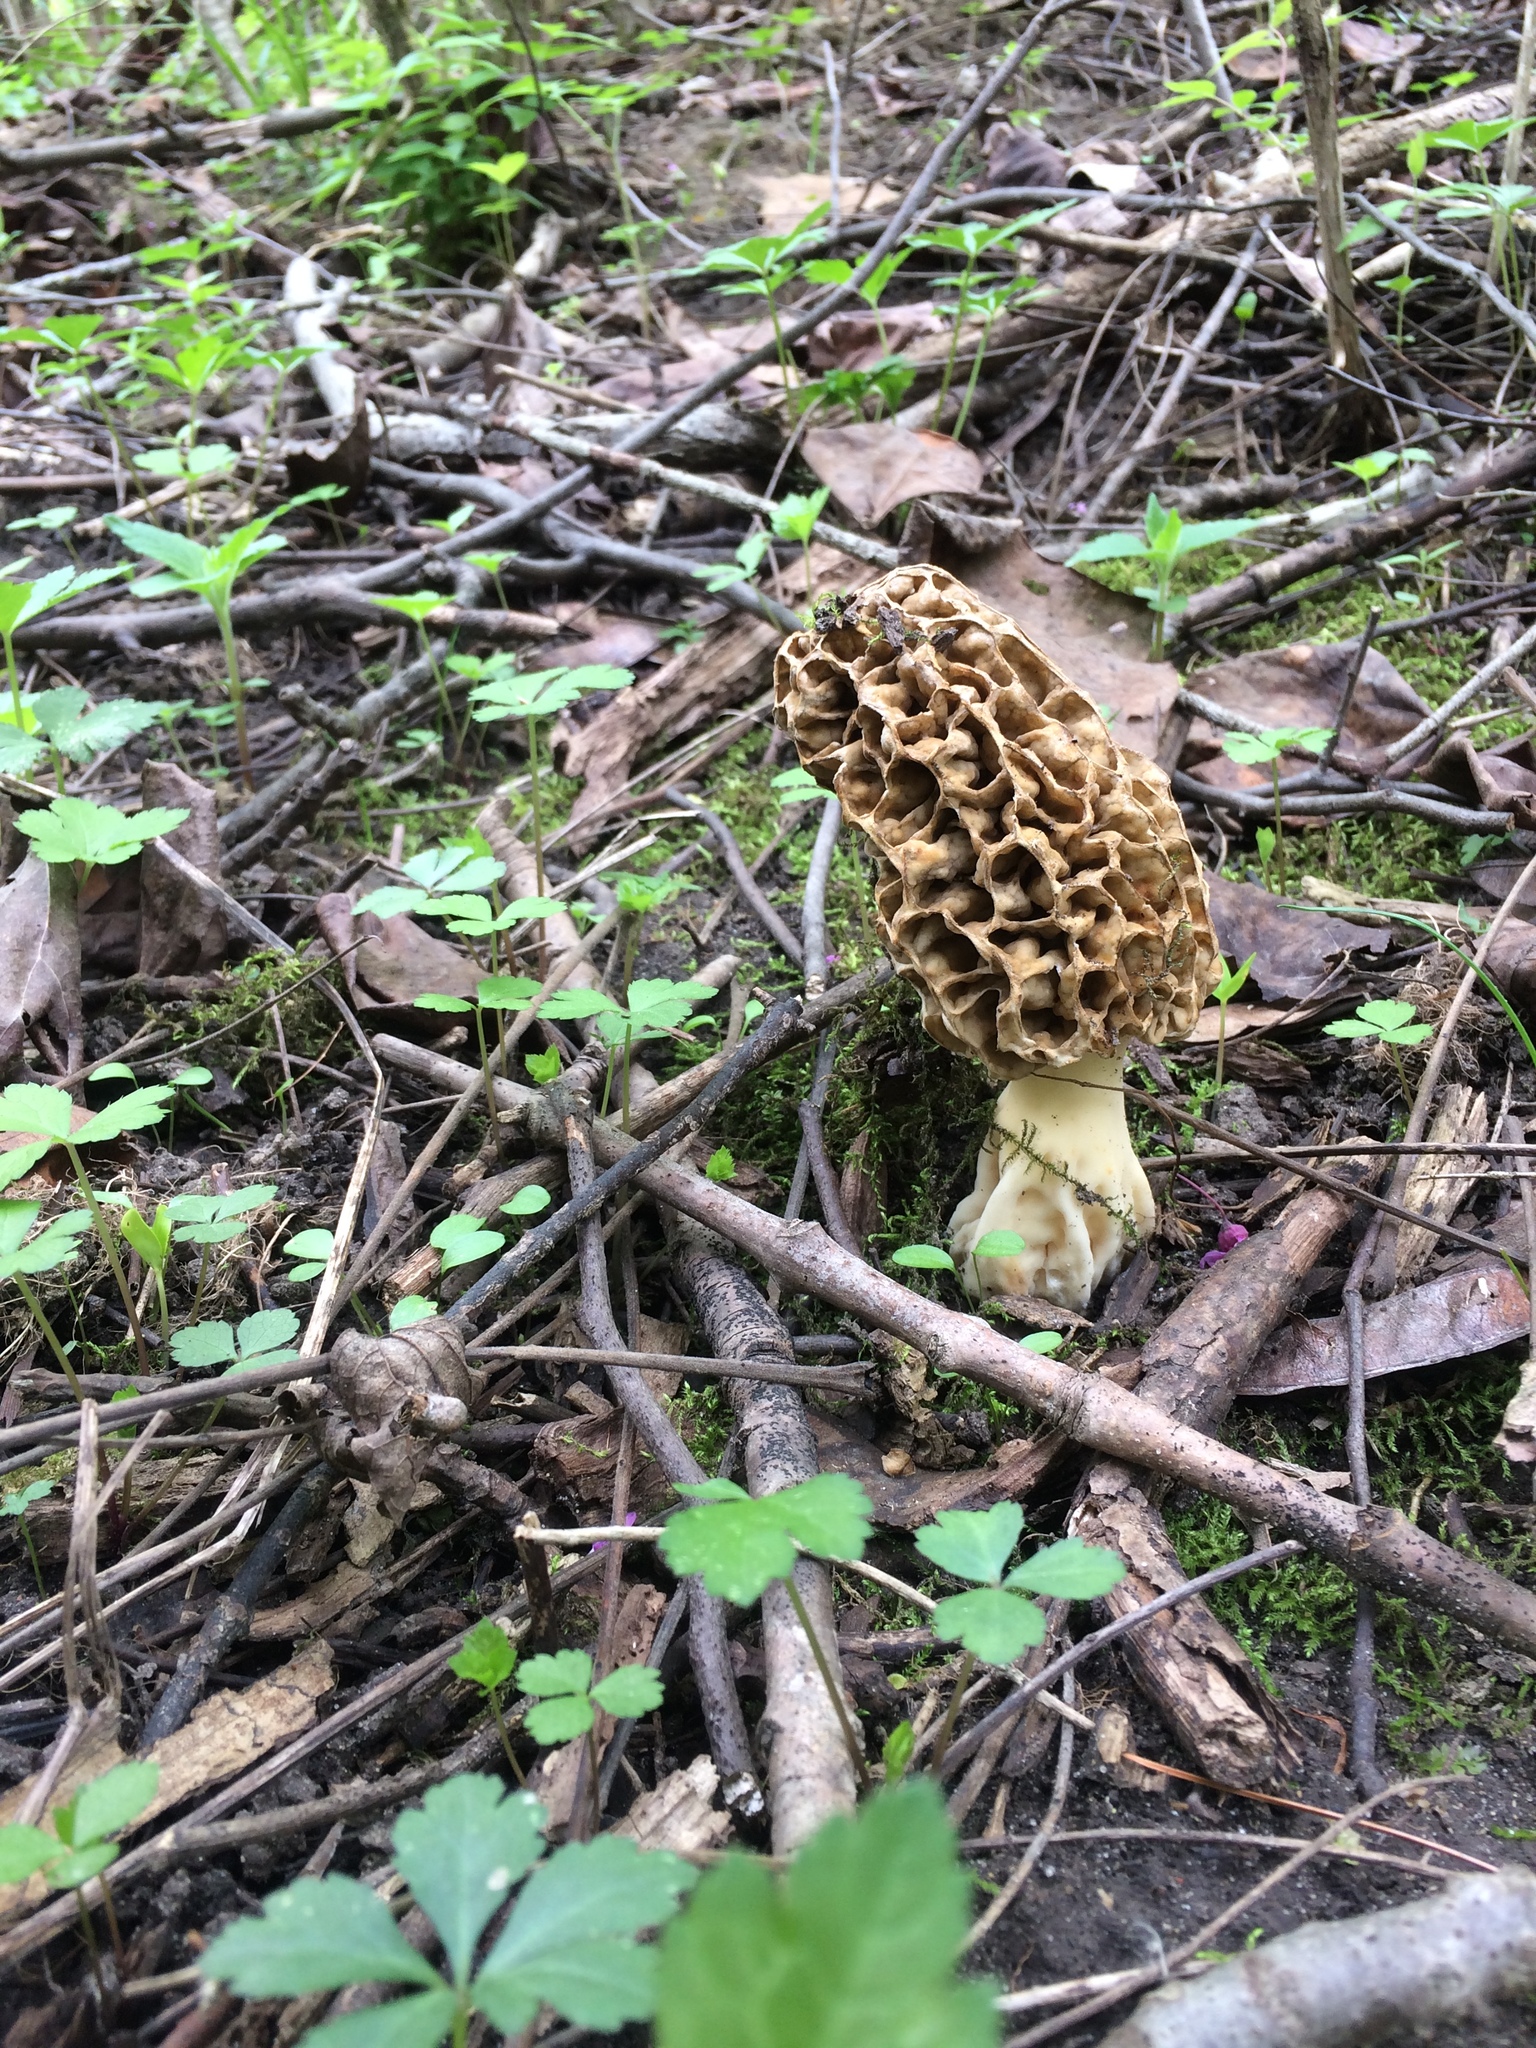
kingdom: Fungi
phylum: Ascomycota
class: Pezizomycetes
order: Pezizales
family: Morchellaceae
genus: Morchella
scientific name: Morchella americana
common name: White morel
